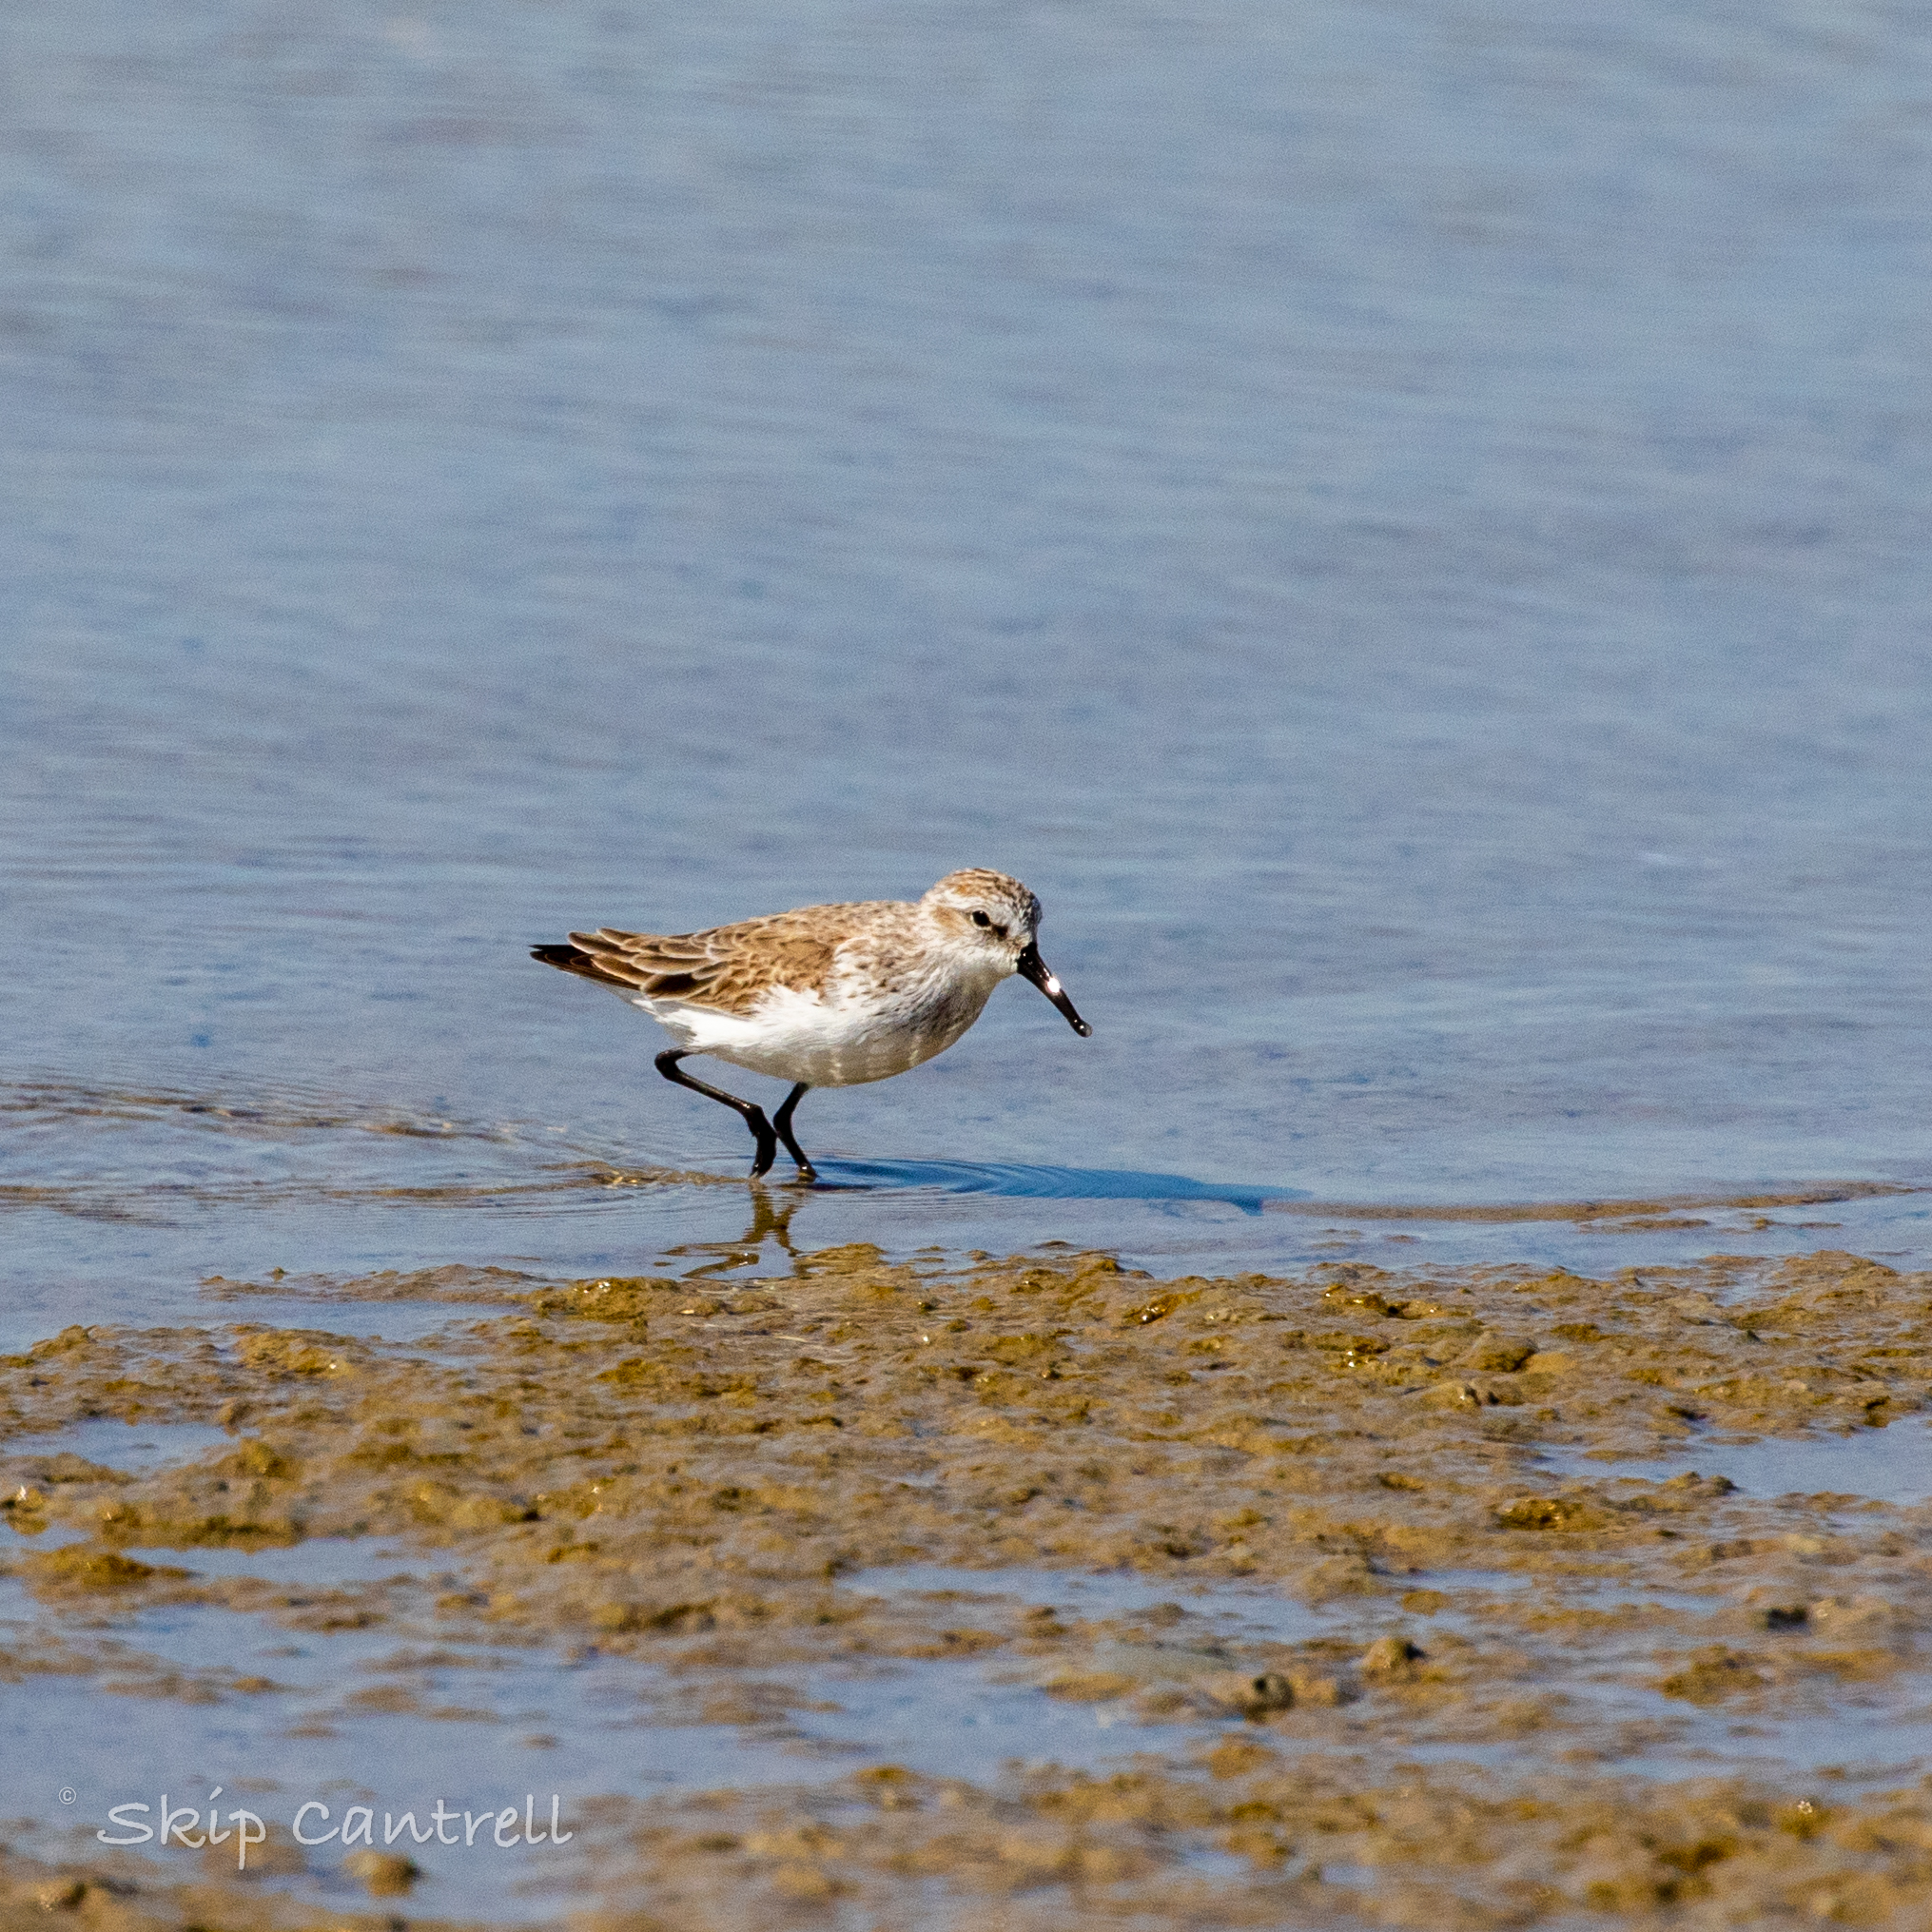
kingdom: Animalia
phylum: Chordata
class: Aves
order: Charadriiformes
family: Scolopacidae
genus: Calidris
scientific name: Calidris mauri
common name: Western sandpiper
